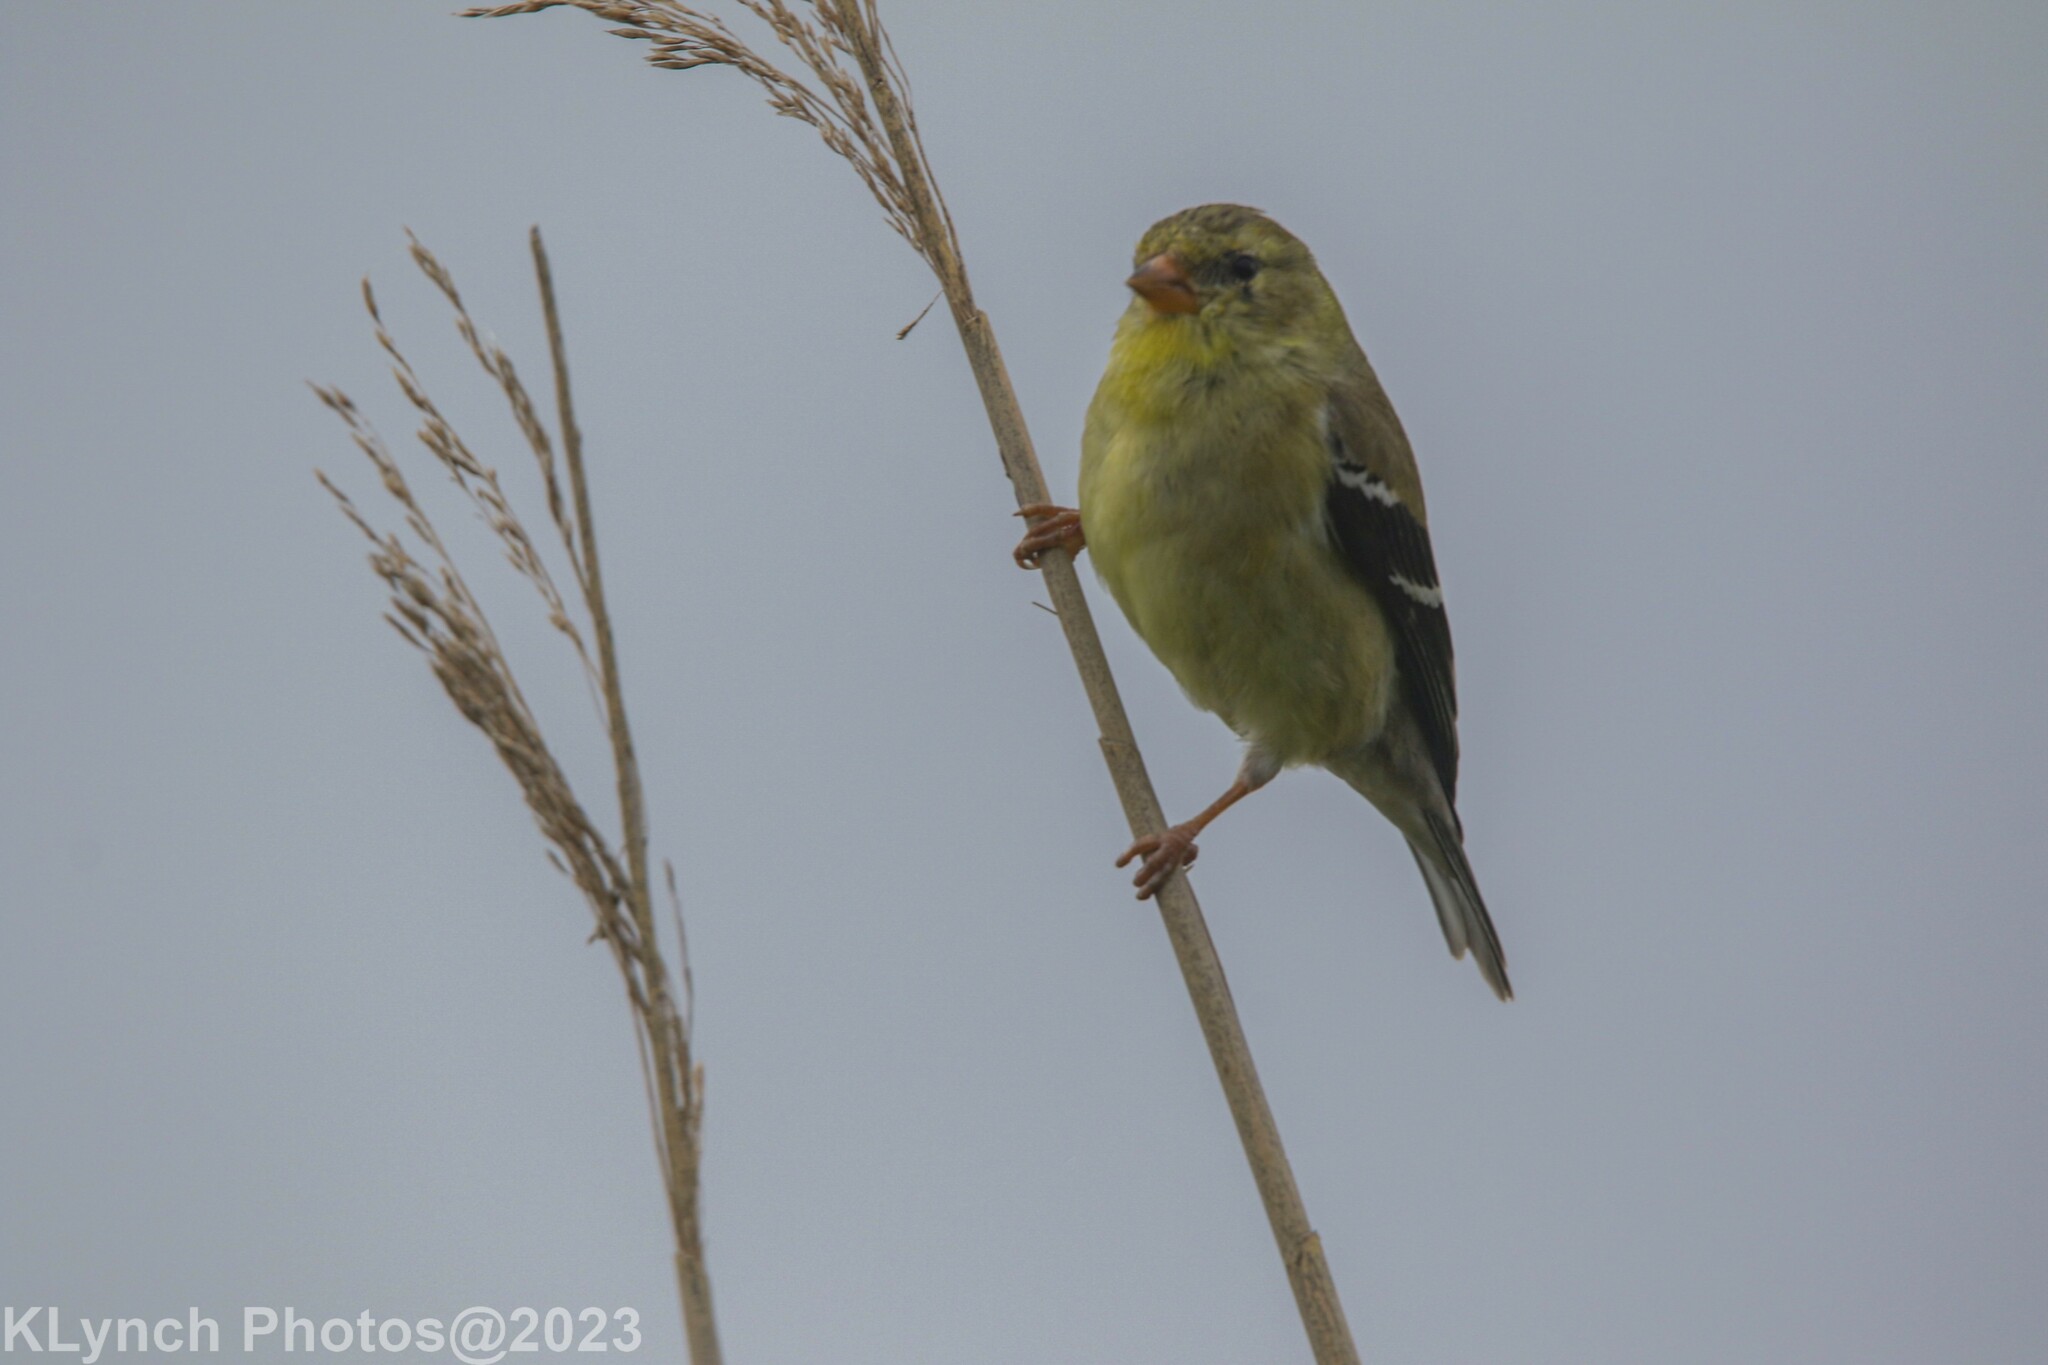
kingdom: Animalia
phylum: Chordata
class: Aves
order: Passeriformes
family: Fringillidae
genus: Spinus
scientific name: Spinus tristis
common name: American goldfinch
